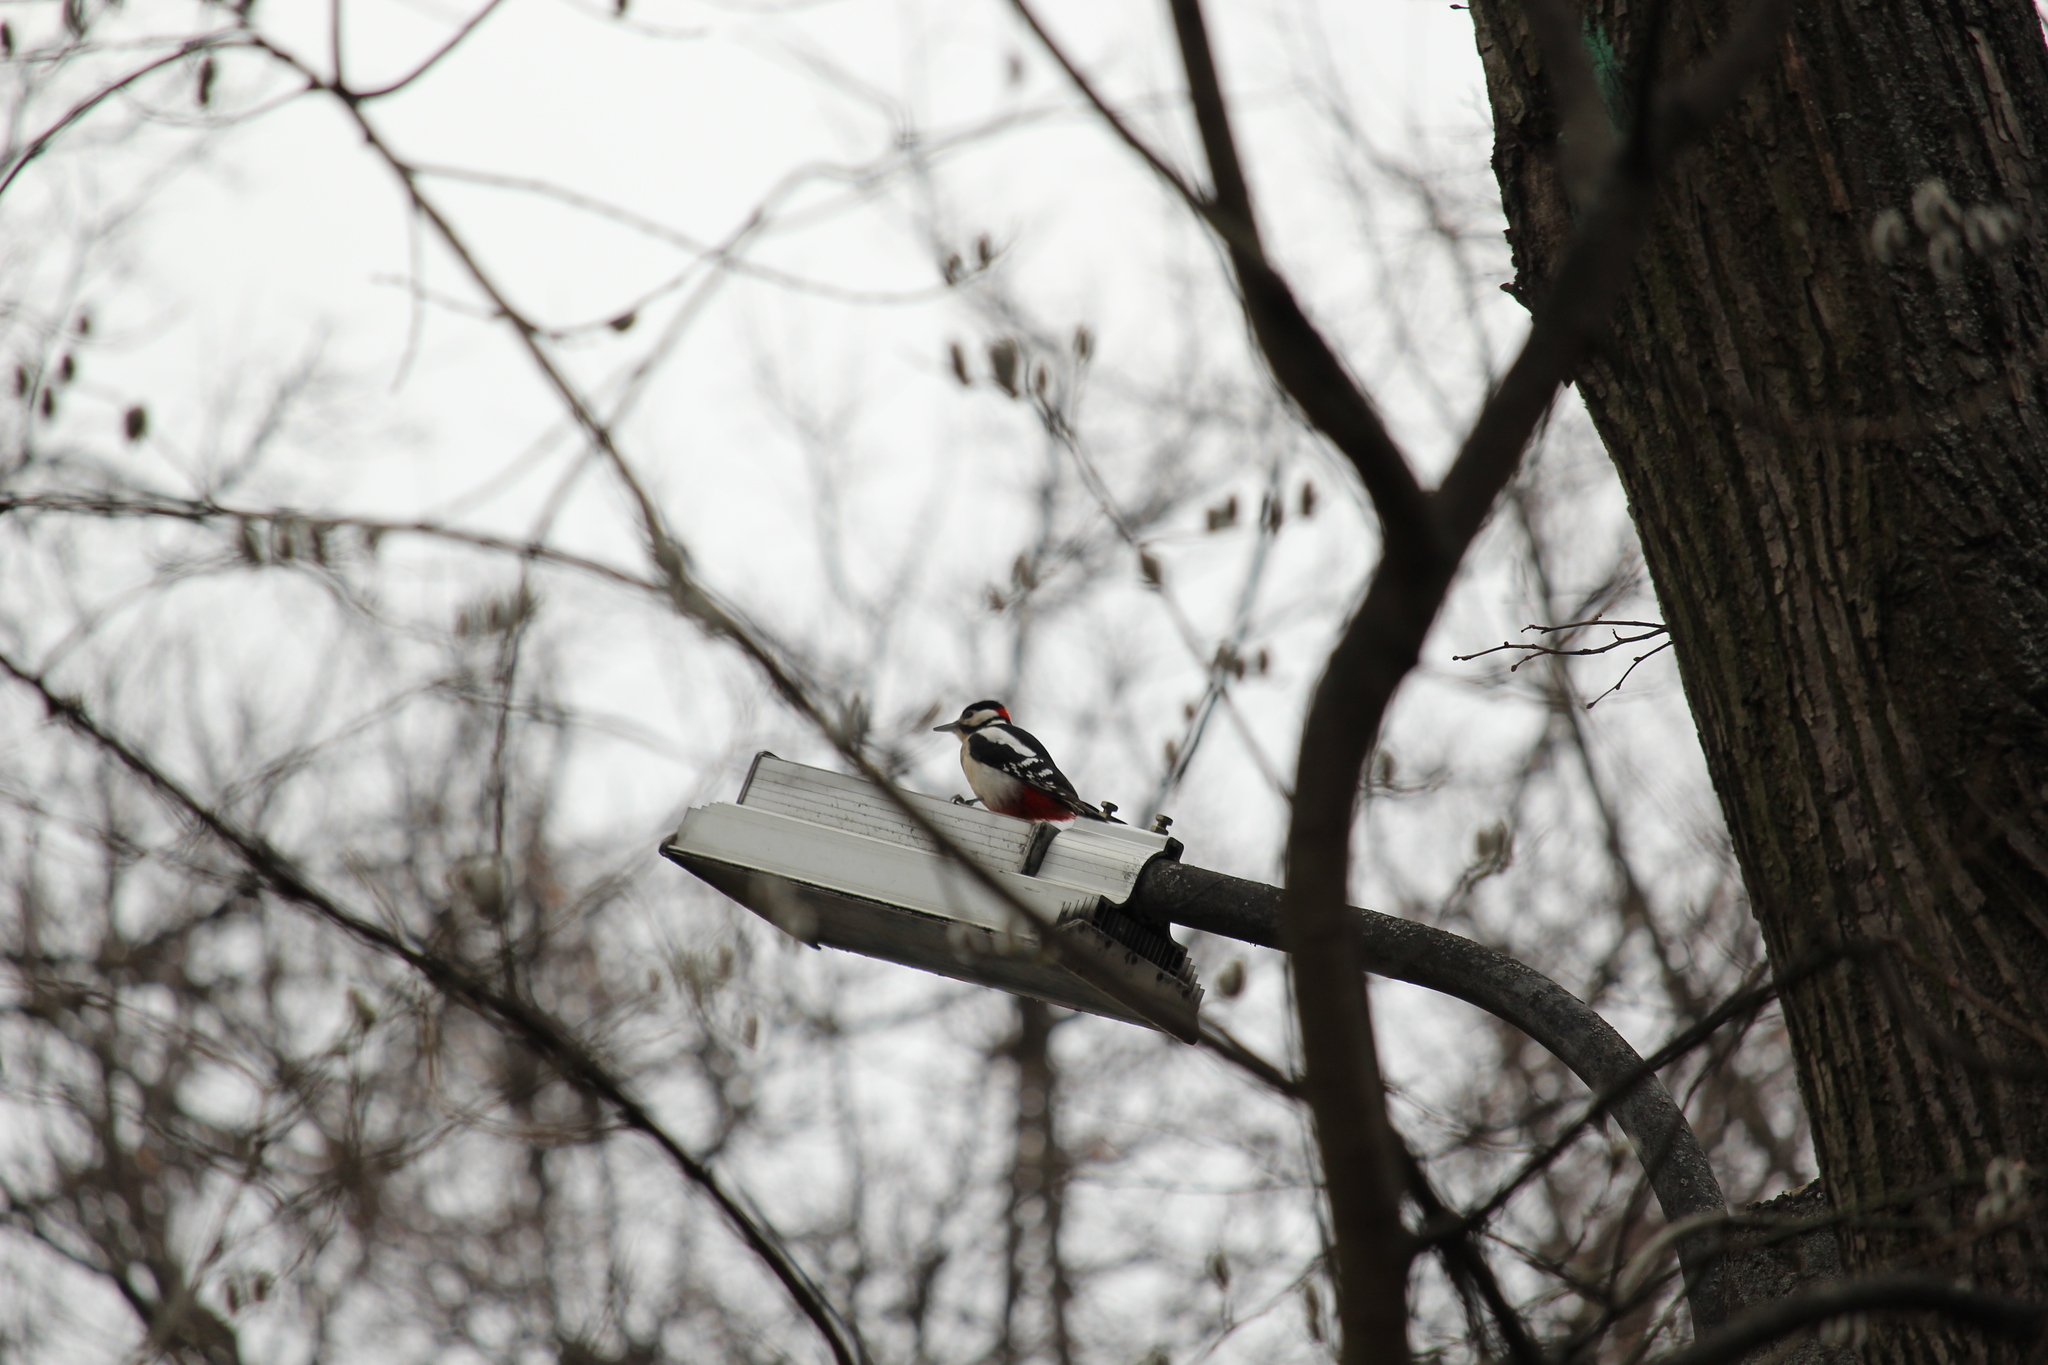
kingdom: Animalia
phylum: Chordata
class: Aves
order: Piciformes
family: Picidae
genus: Dendrocopos
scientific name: Dendrocopos major
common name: Great spotted woodpecker
